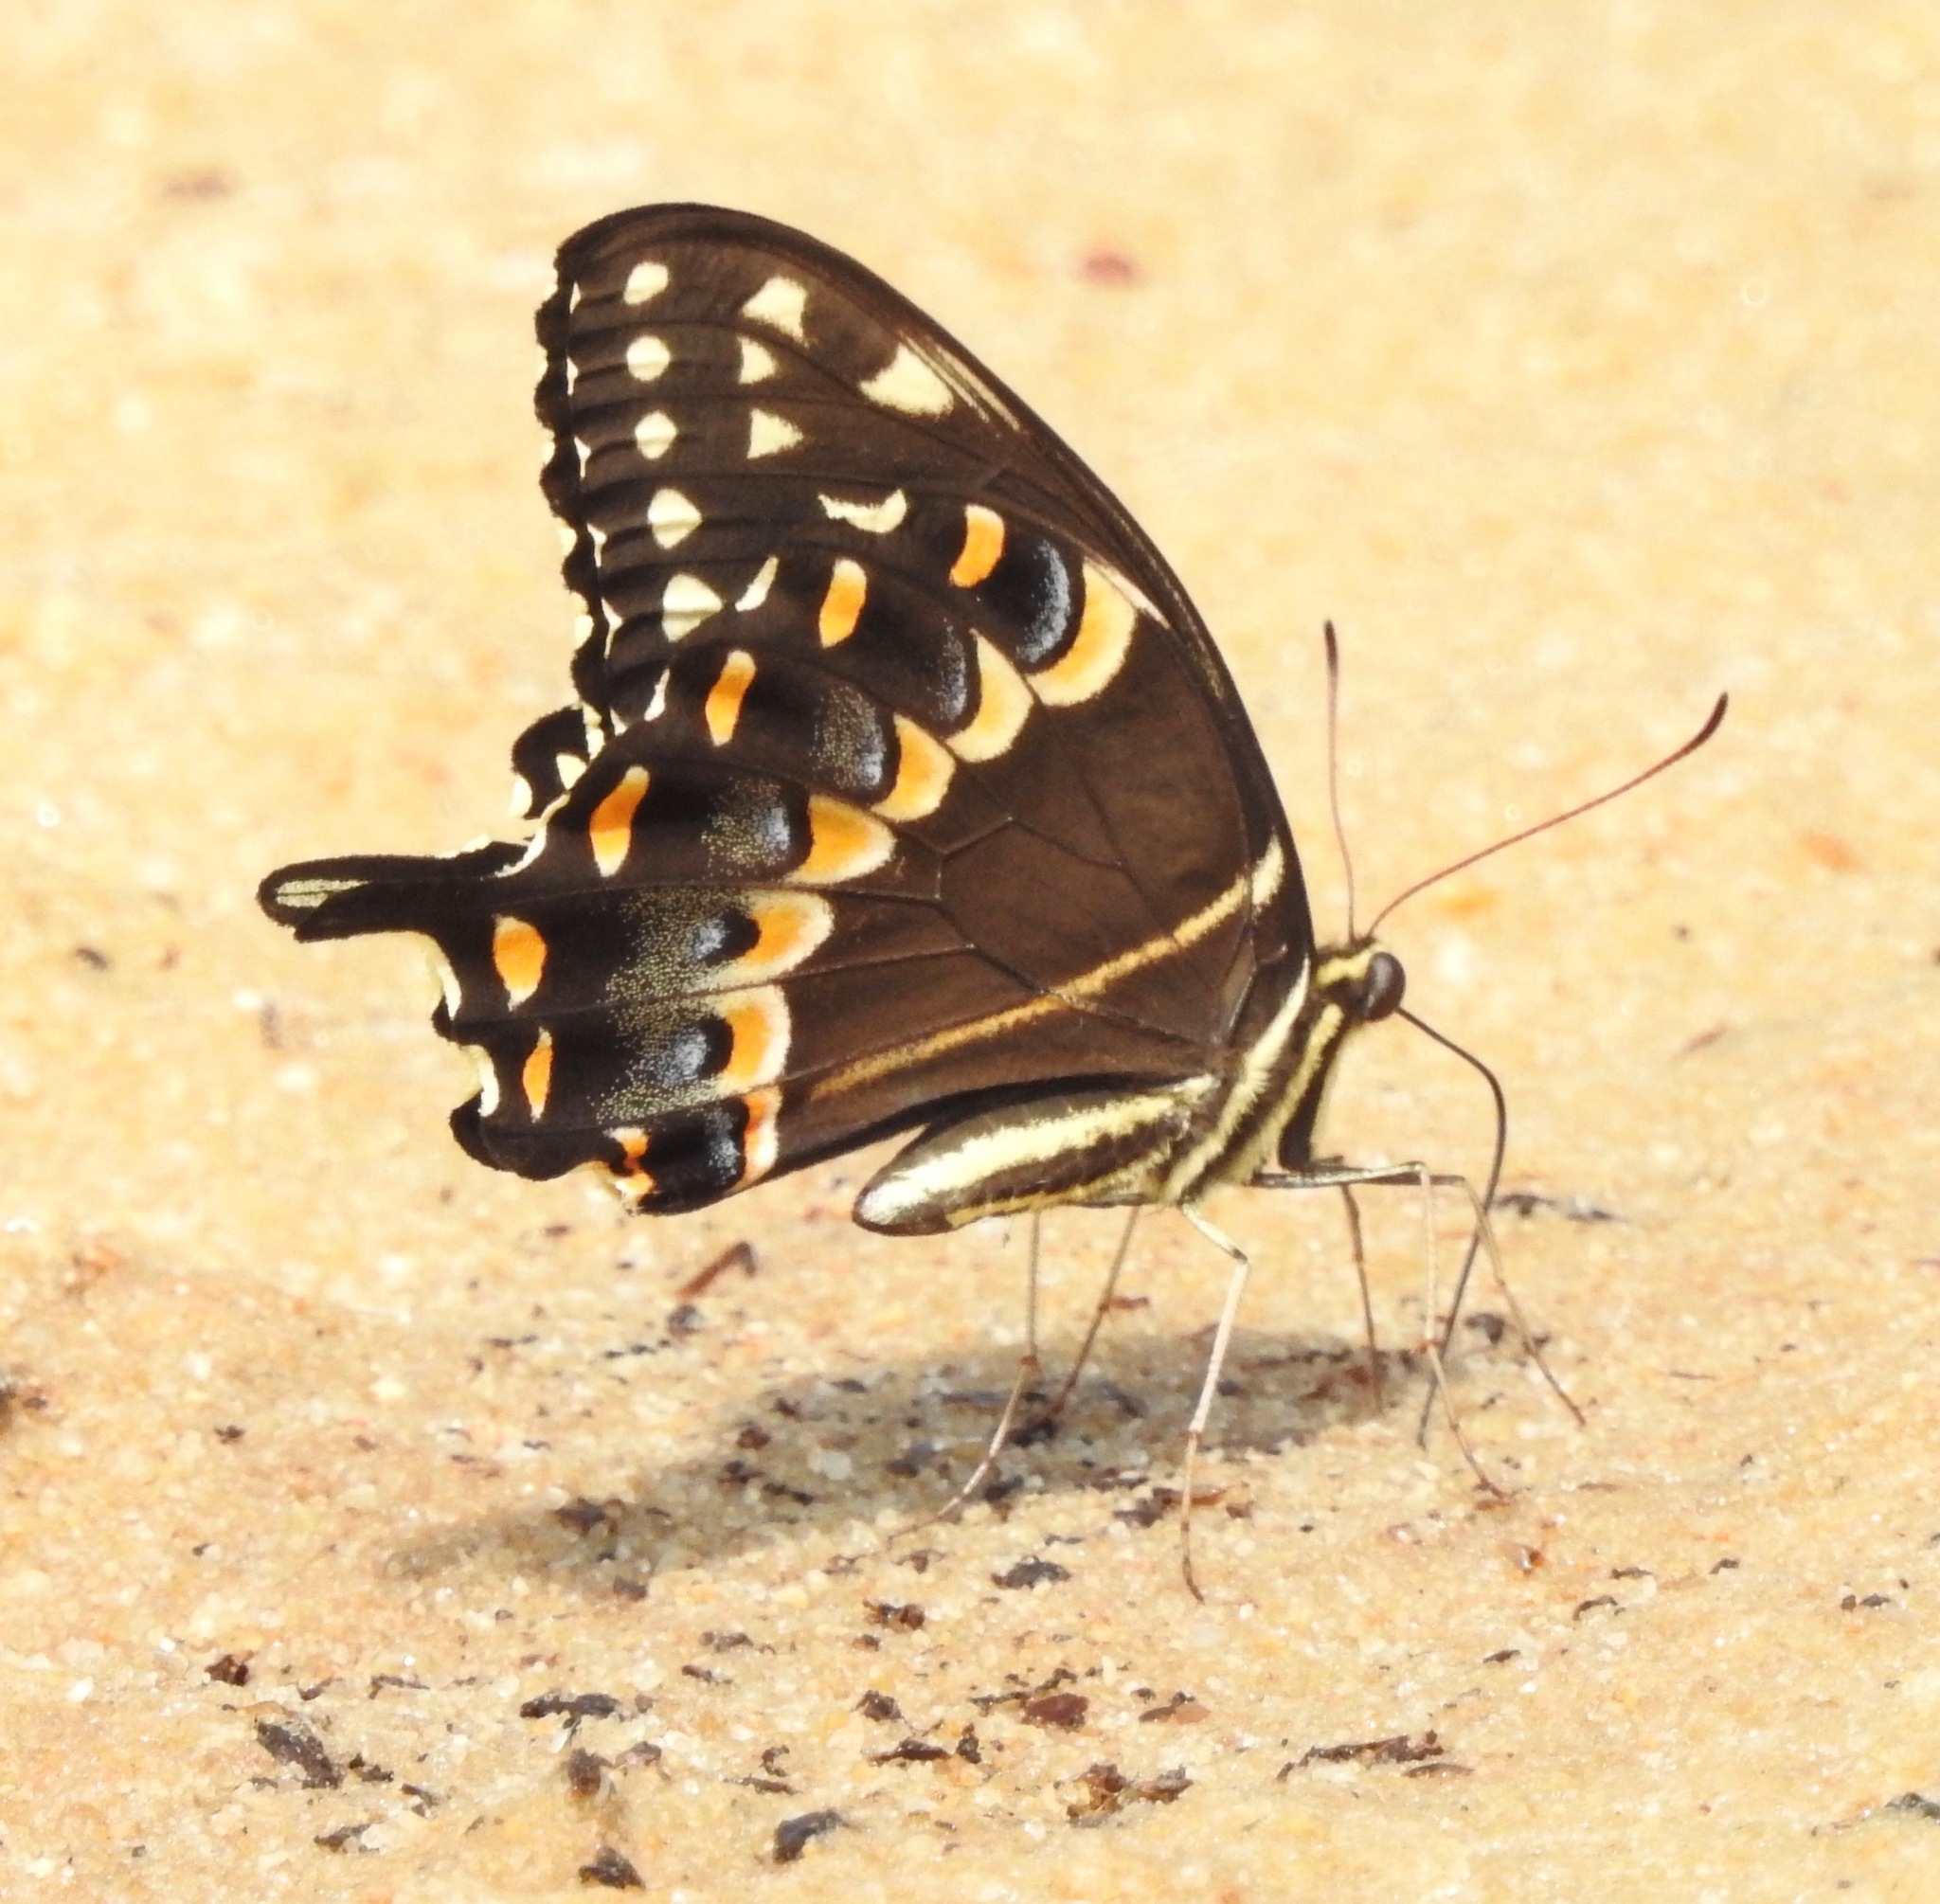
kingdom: Animalia
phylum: Arthropoda
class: Insecta
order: Lepidoptera
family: Papilionidae
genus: Papilio
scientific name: Papilio palamedes
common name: Palamedes swallowtail
